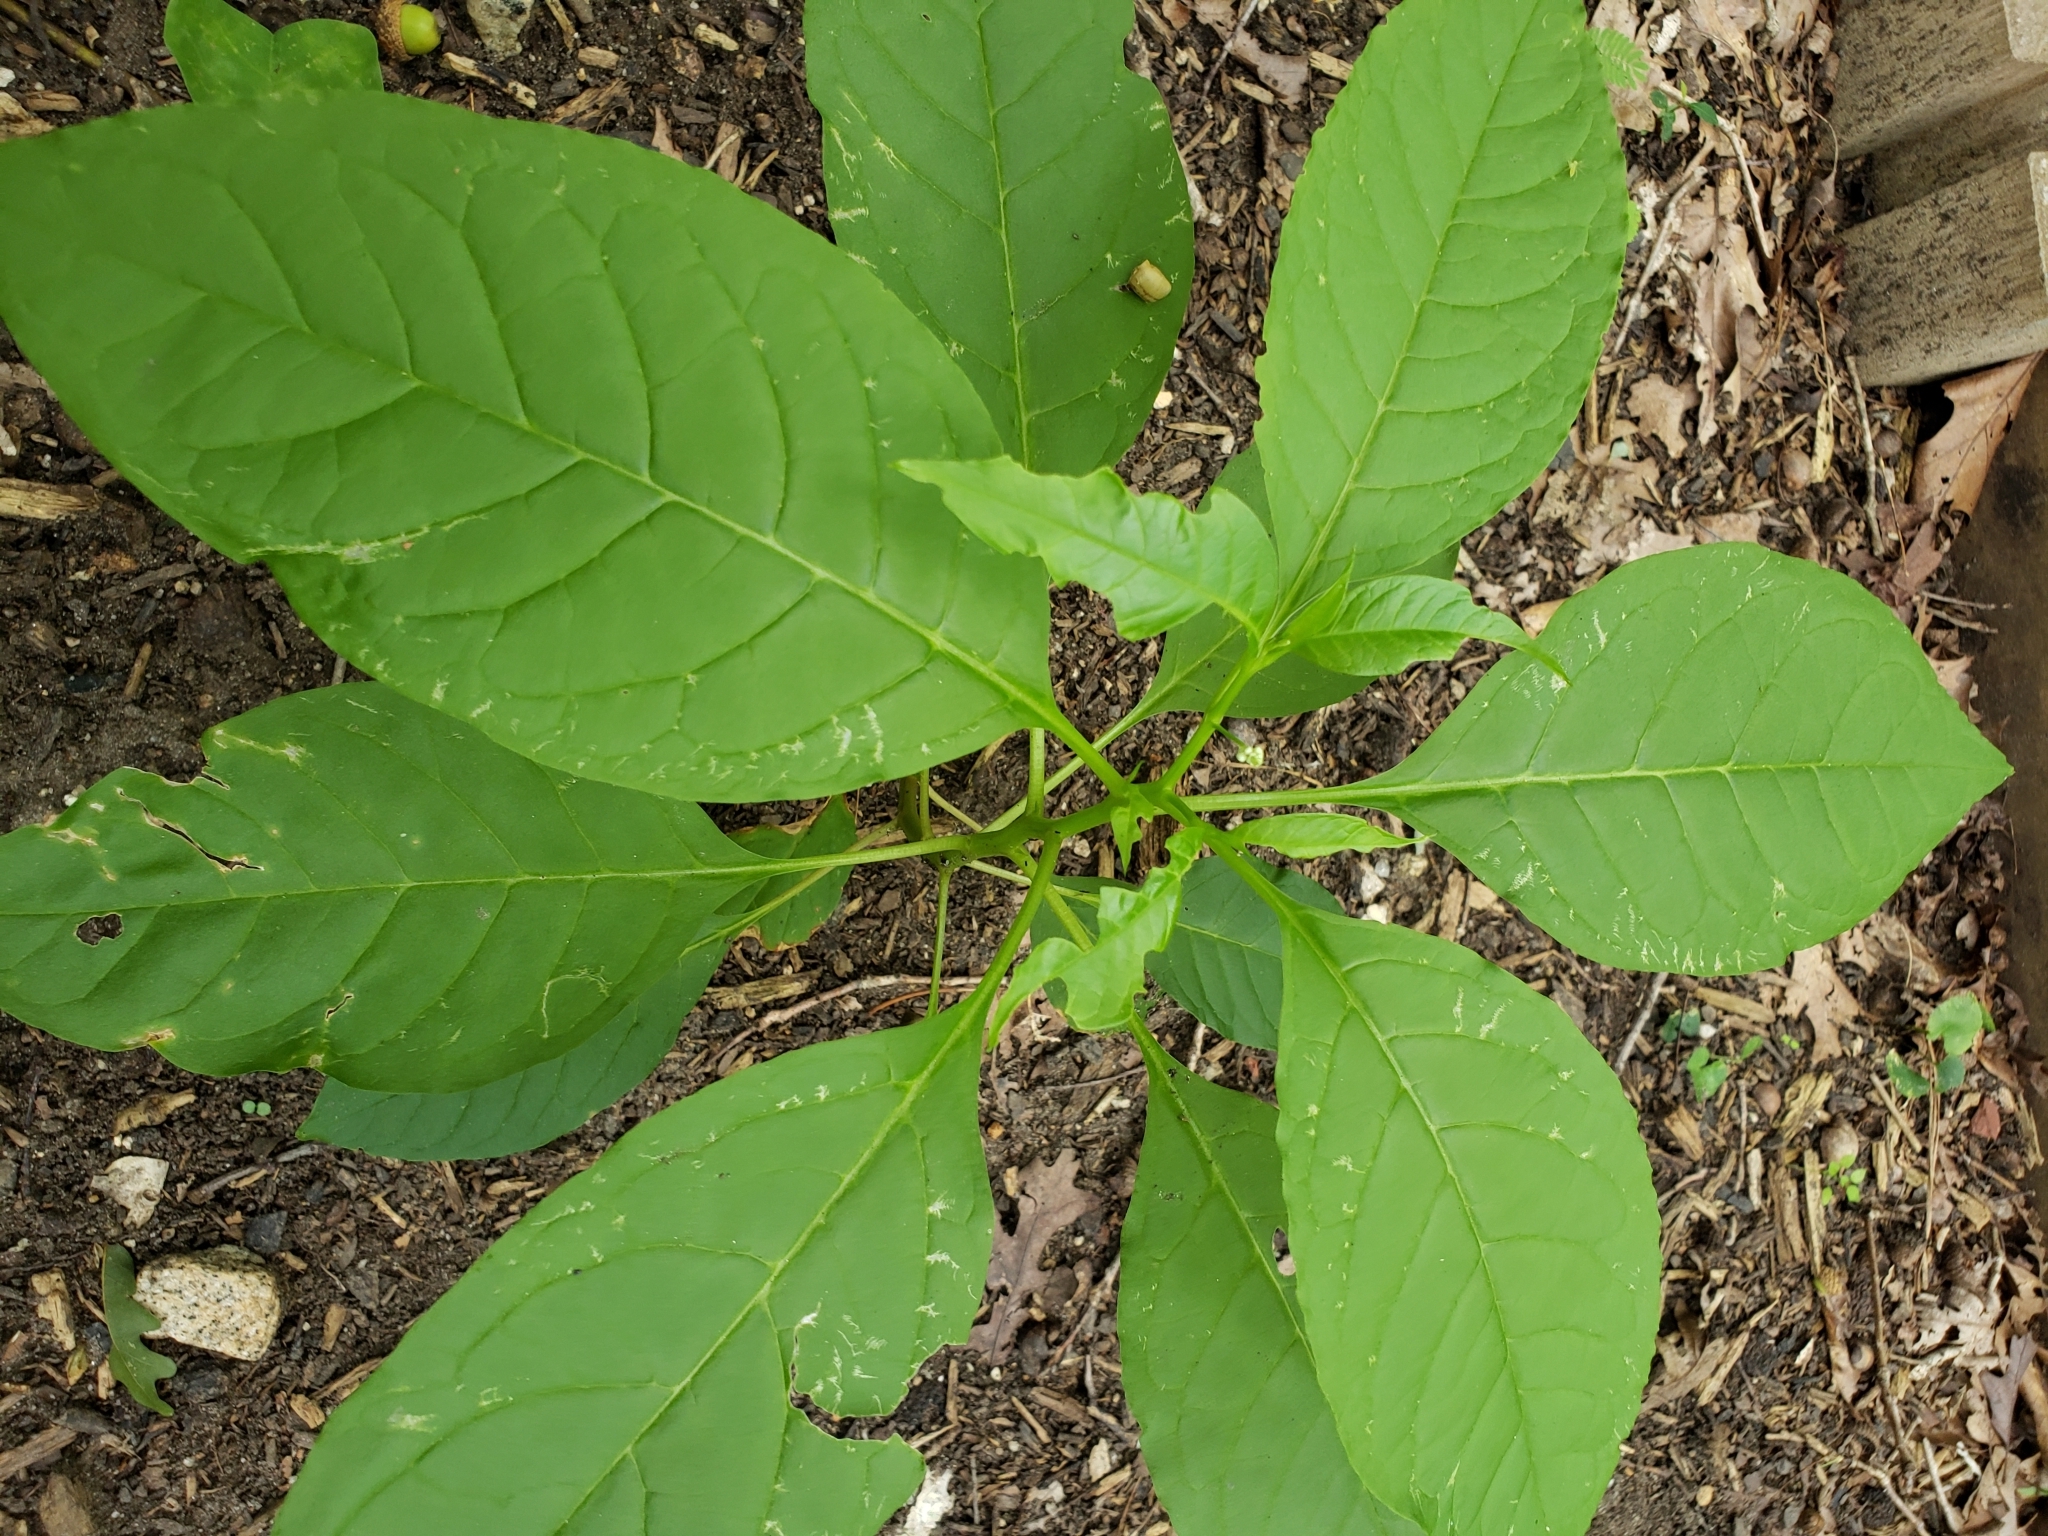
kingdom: Plantae
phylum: Tracheophyta
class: Magnoliopsida
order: Caryophyllales
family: Phytolaccaceae
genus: Phytolacca
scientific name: Phytolacca americana
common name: American pokeweed
